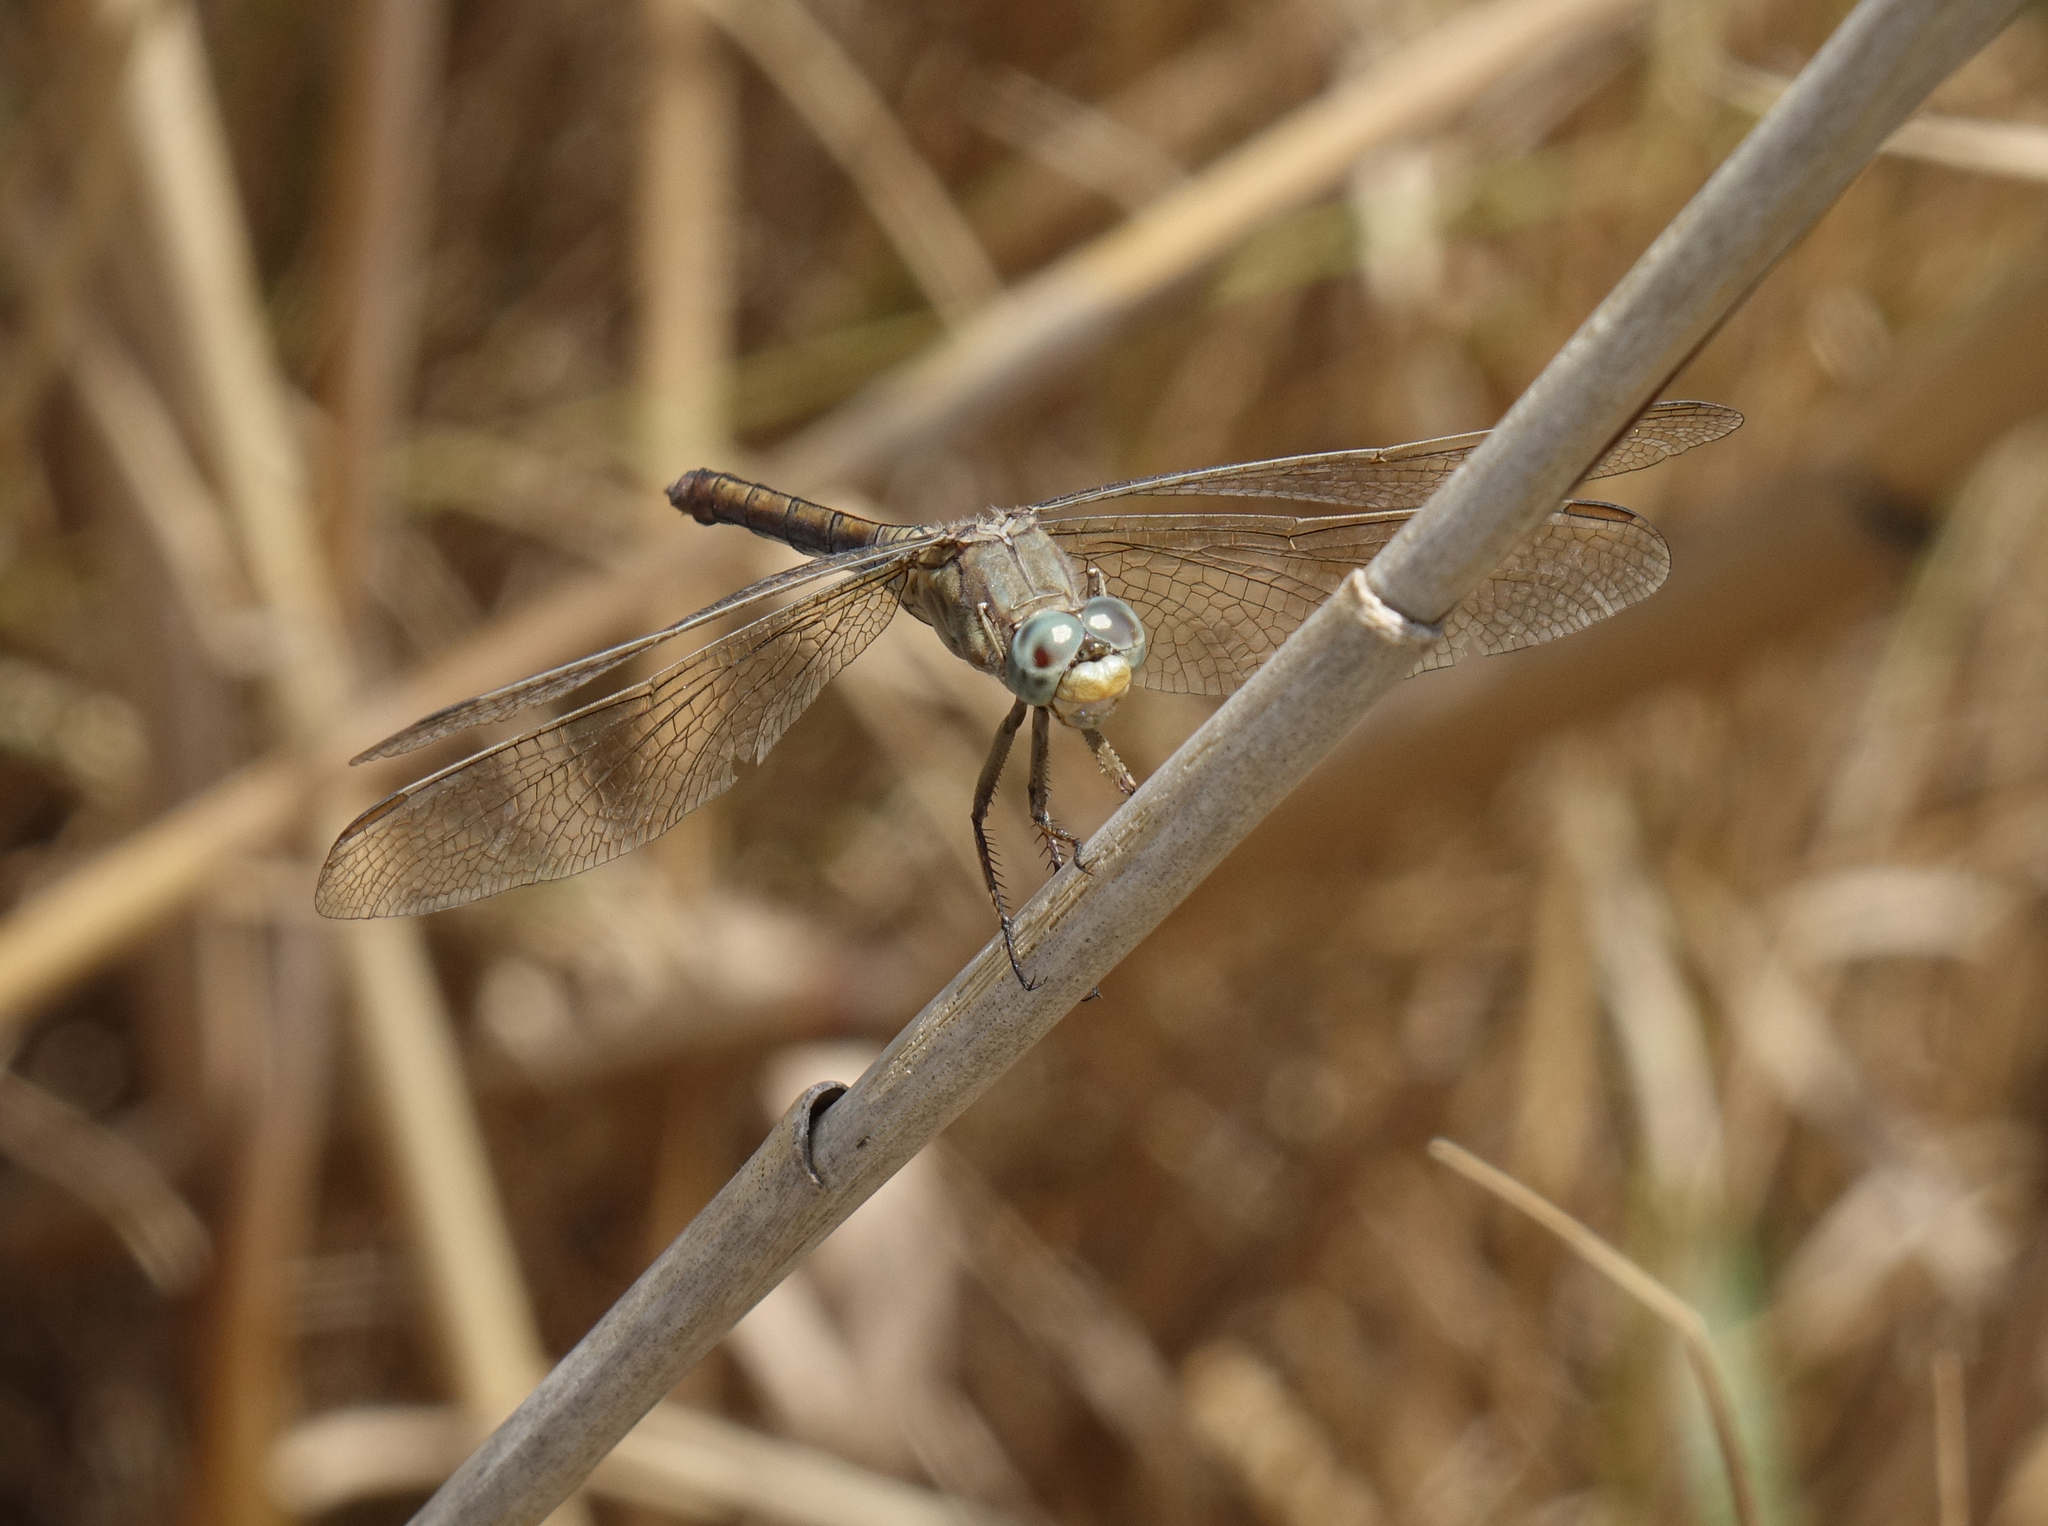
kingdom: Animalia
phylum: Arthropoda
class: Insecta
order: Odonata
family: Libellulidae
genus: Orthetrum
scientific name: Orthetrum coerulescens
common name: Keeled skimmer
